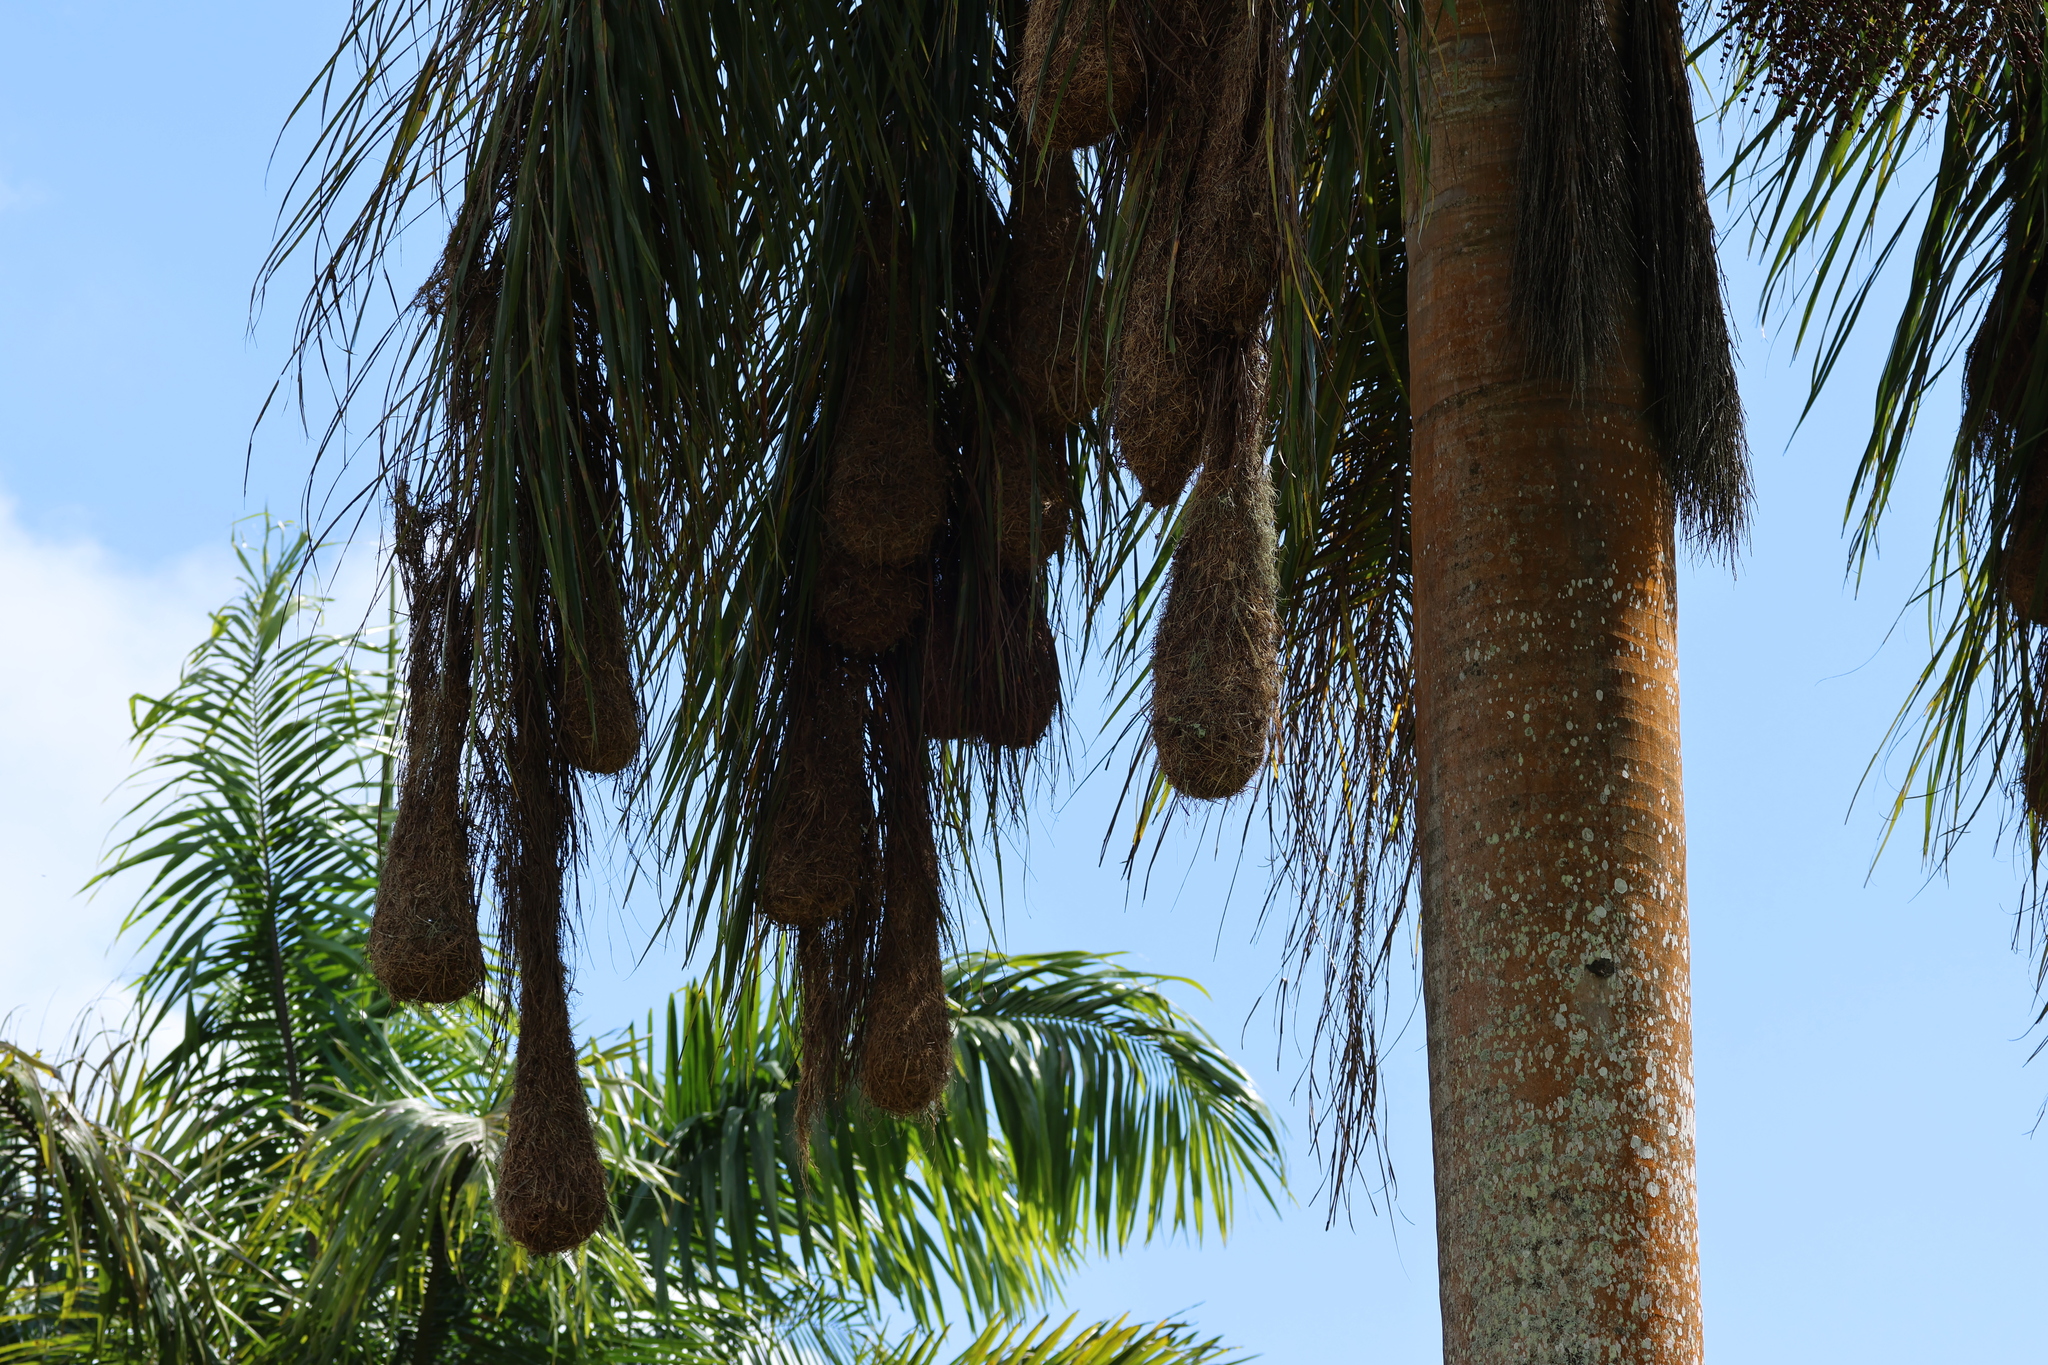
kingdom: Animalia
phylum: Chordata
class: Aves
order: Passeriformes
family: Icteridae
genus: Psarocolius
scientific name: Psarocolius montezuma
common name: Montezuma oropendola
